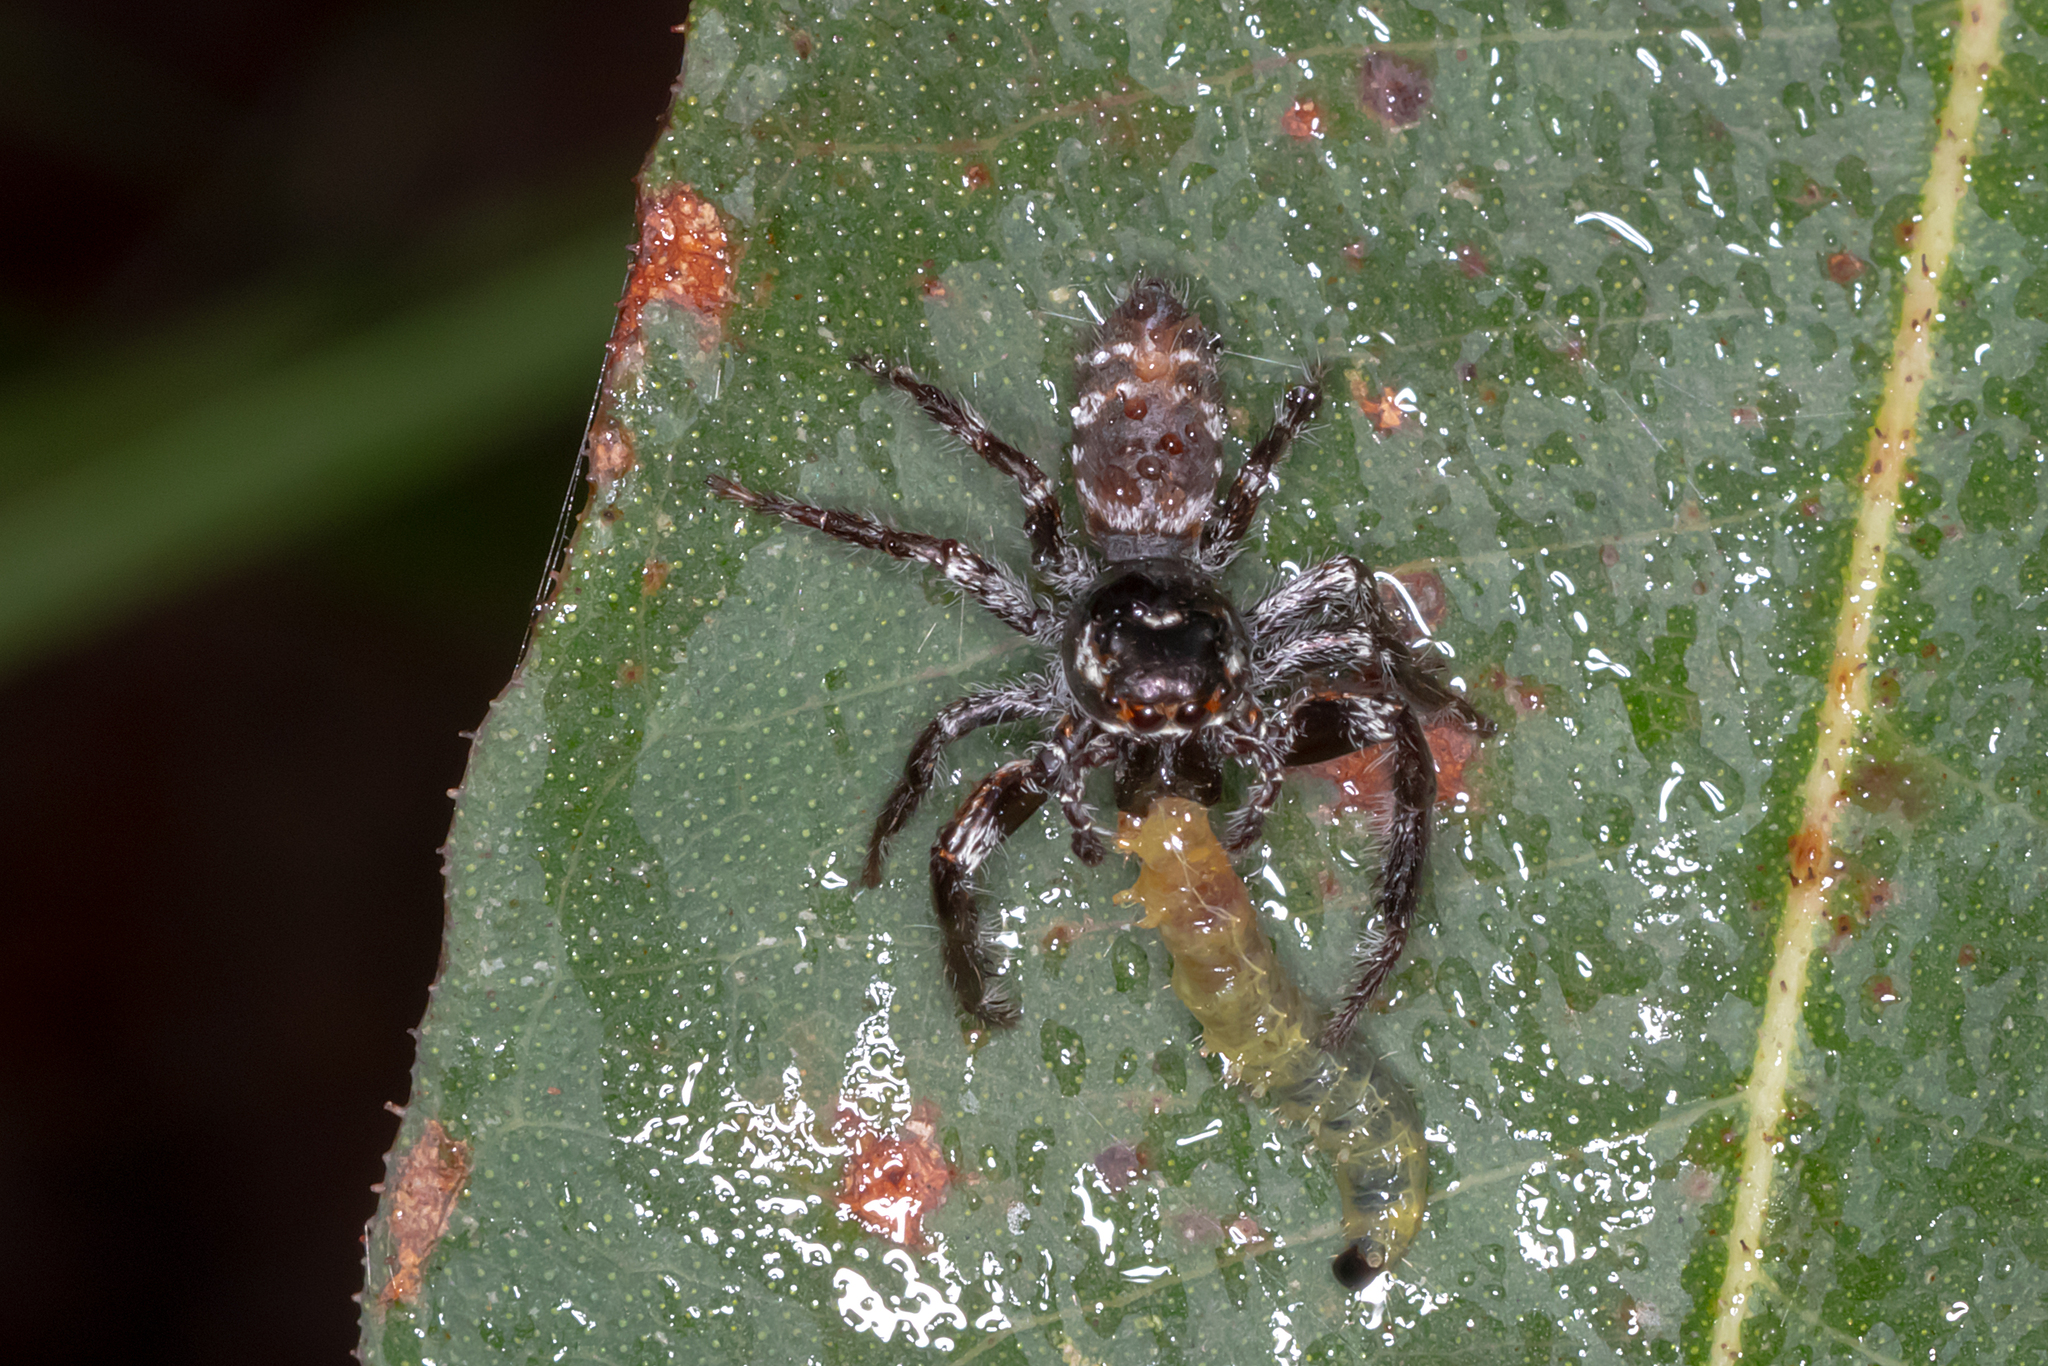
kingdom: Animalia
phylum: Arthropoda
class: Arachnida
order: Araneae
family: Salticidae
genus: Sandalodes
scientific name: Sandalodes superbus
